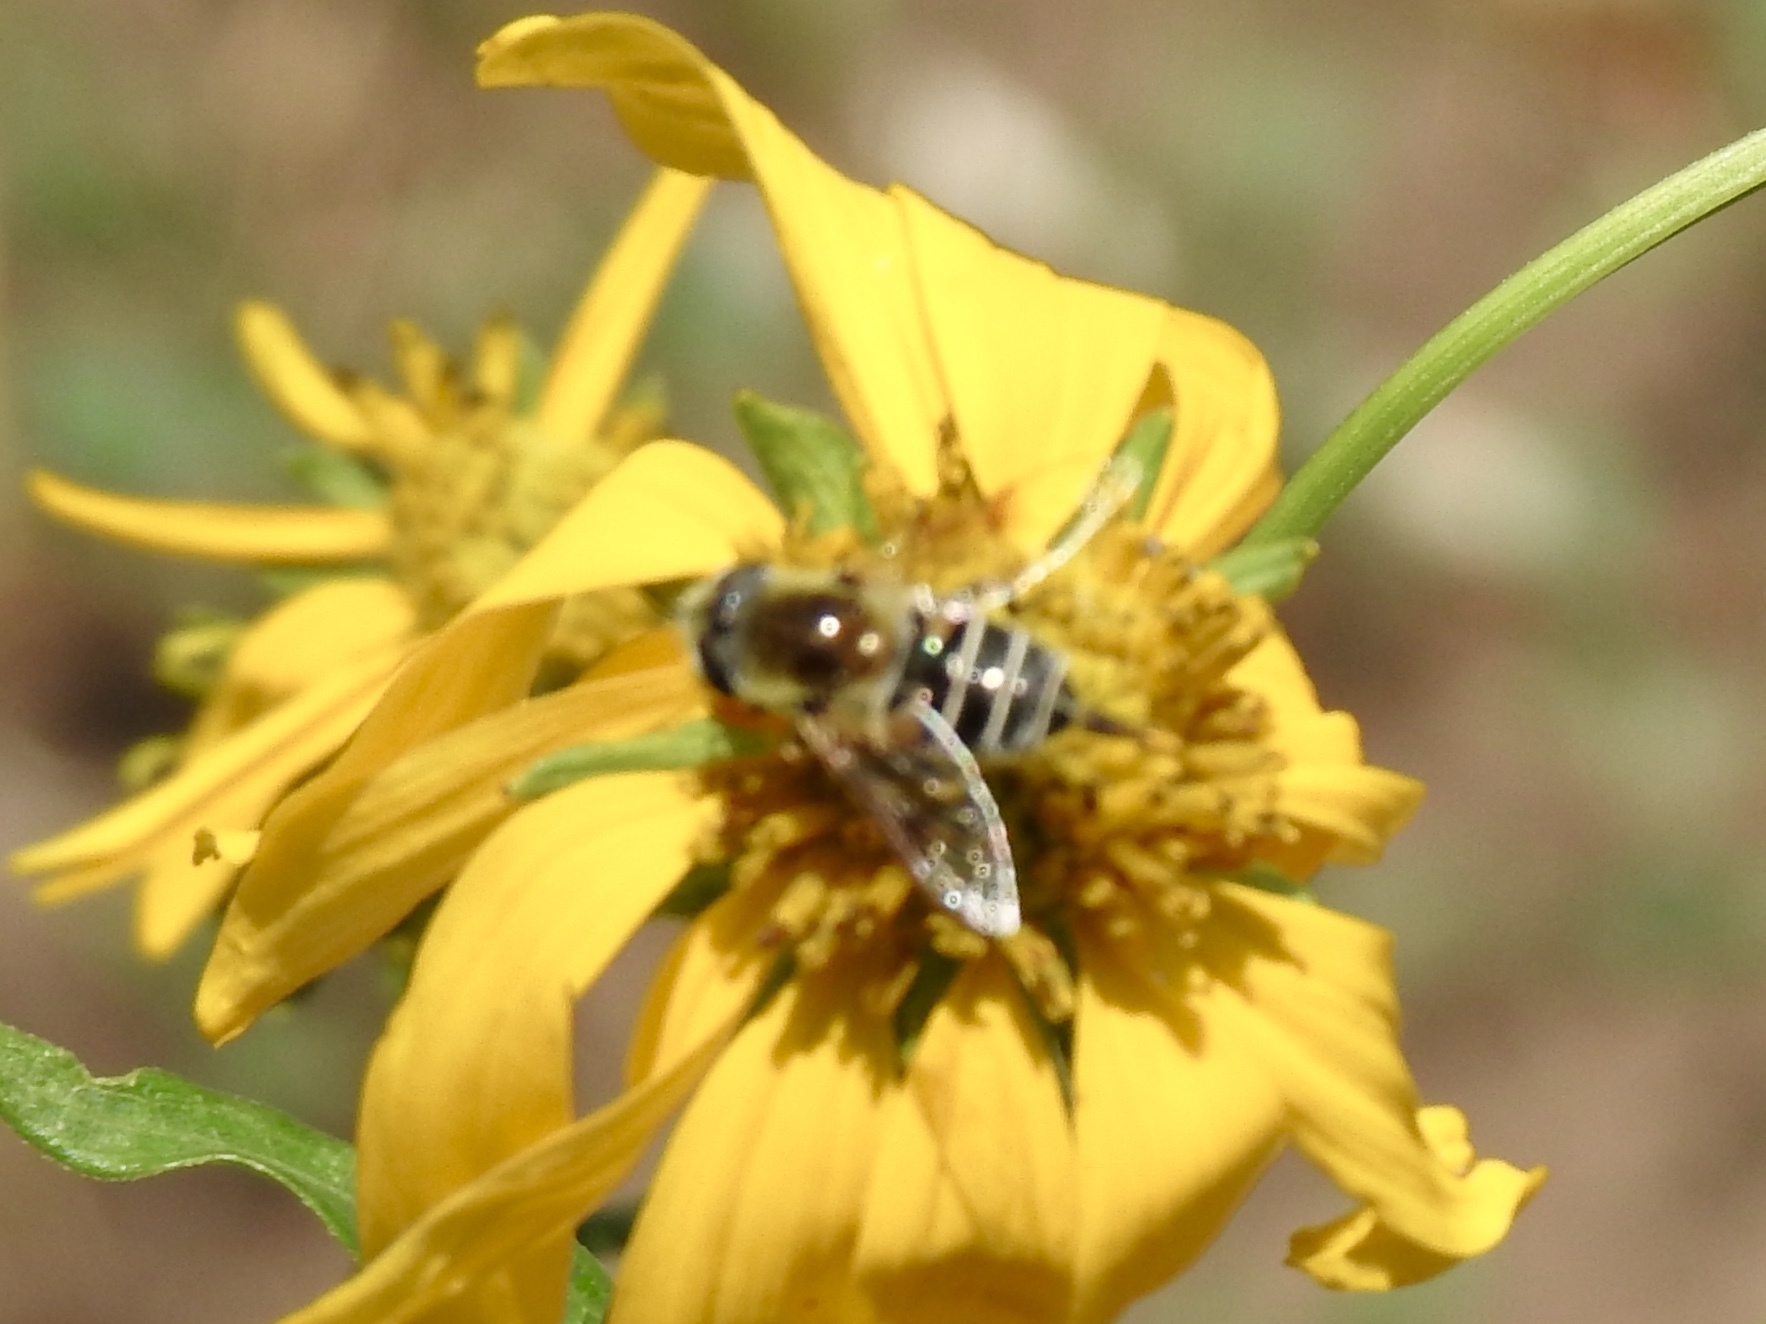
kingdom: Animalia
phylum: Arthropoda
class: Insecta
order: Diptera
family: Syrphidae
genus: Eristalis
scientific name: Eristalis hirta
